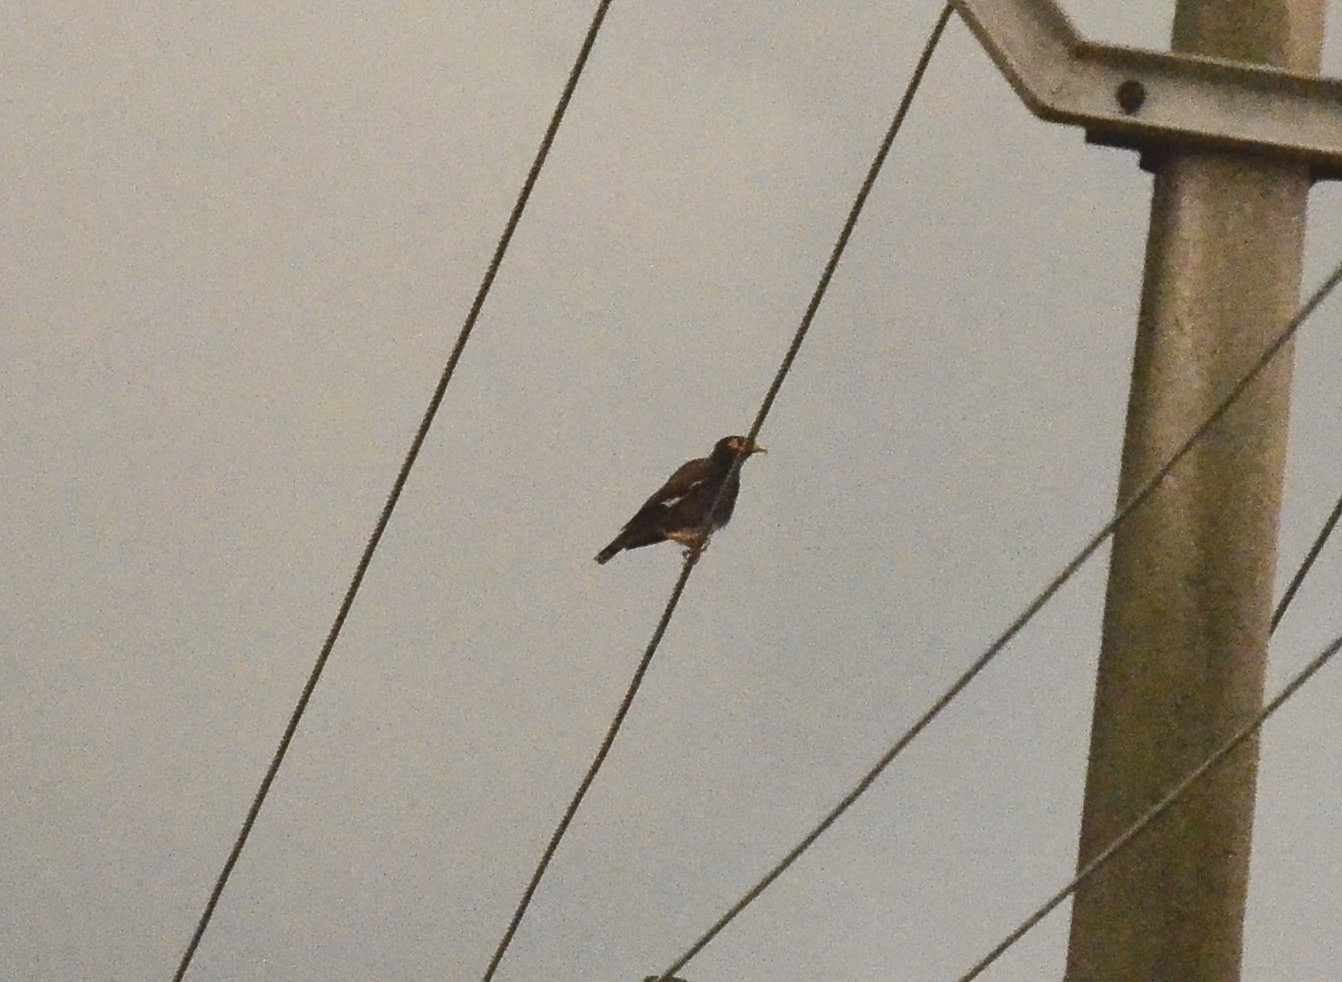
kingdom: Animalia
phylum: Chordata
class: Aves
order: Passeriformes
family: Sturnidae
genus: Acridotheres
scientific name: Acridotheres tristis
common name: Common myna
